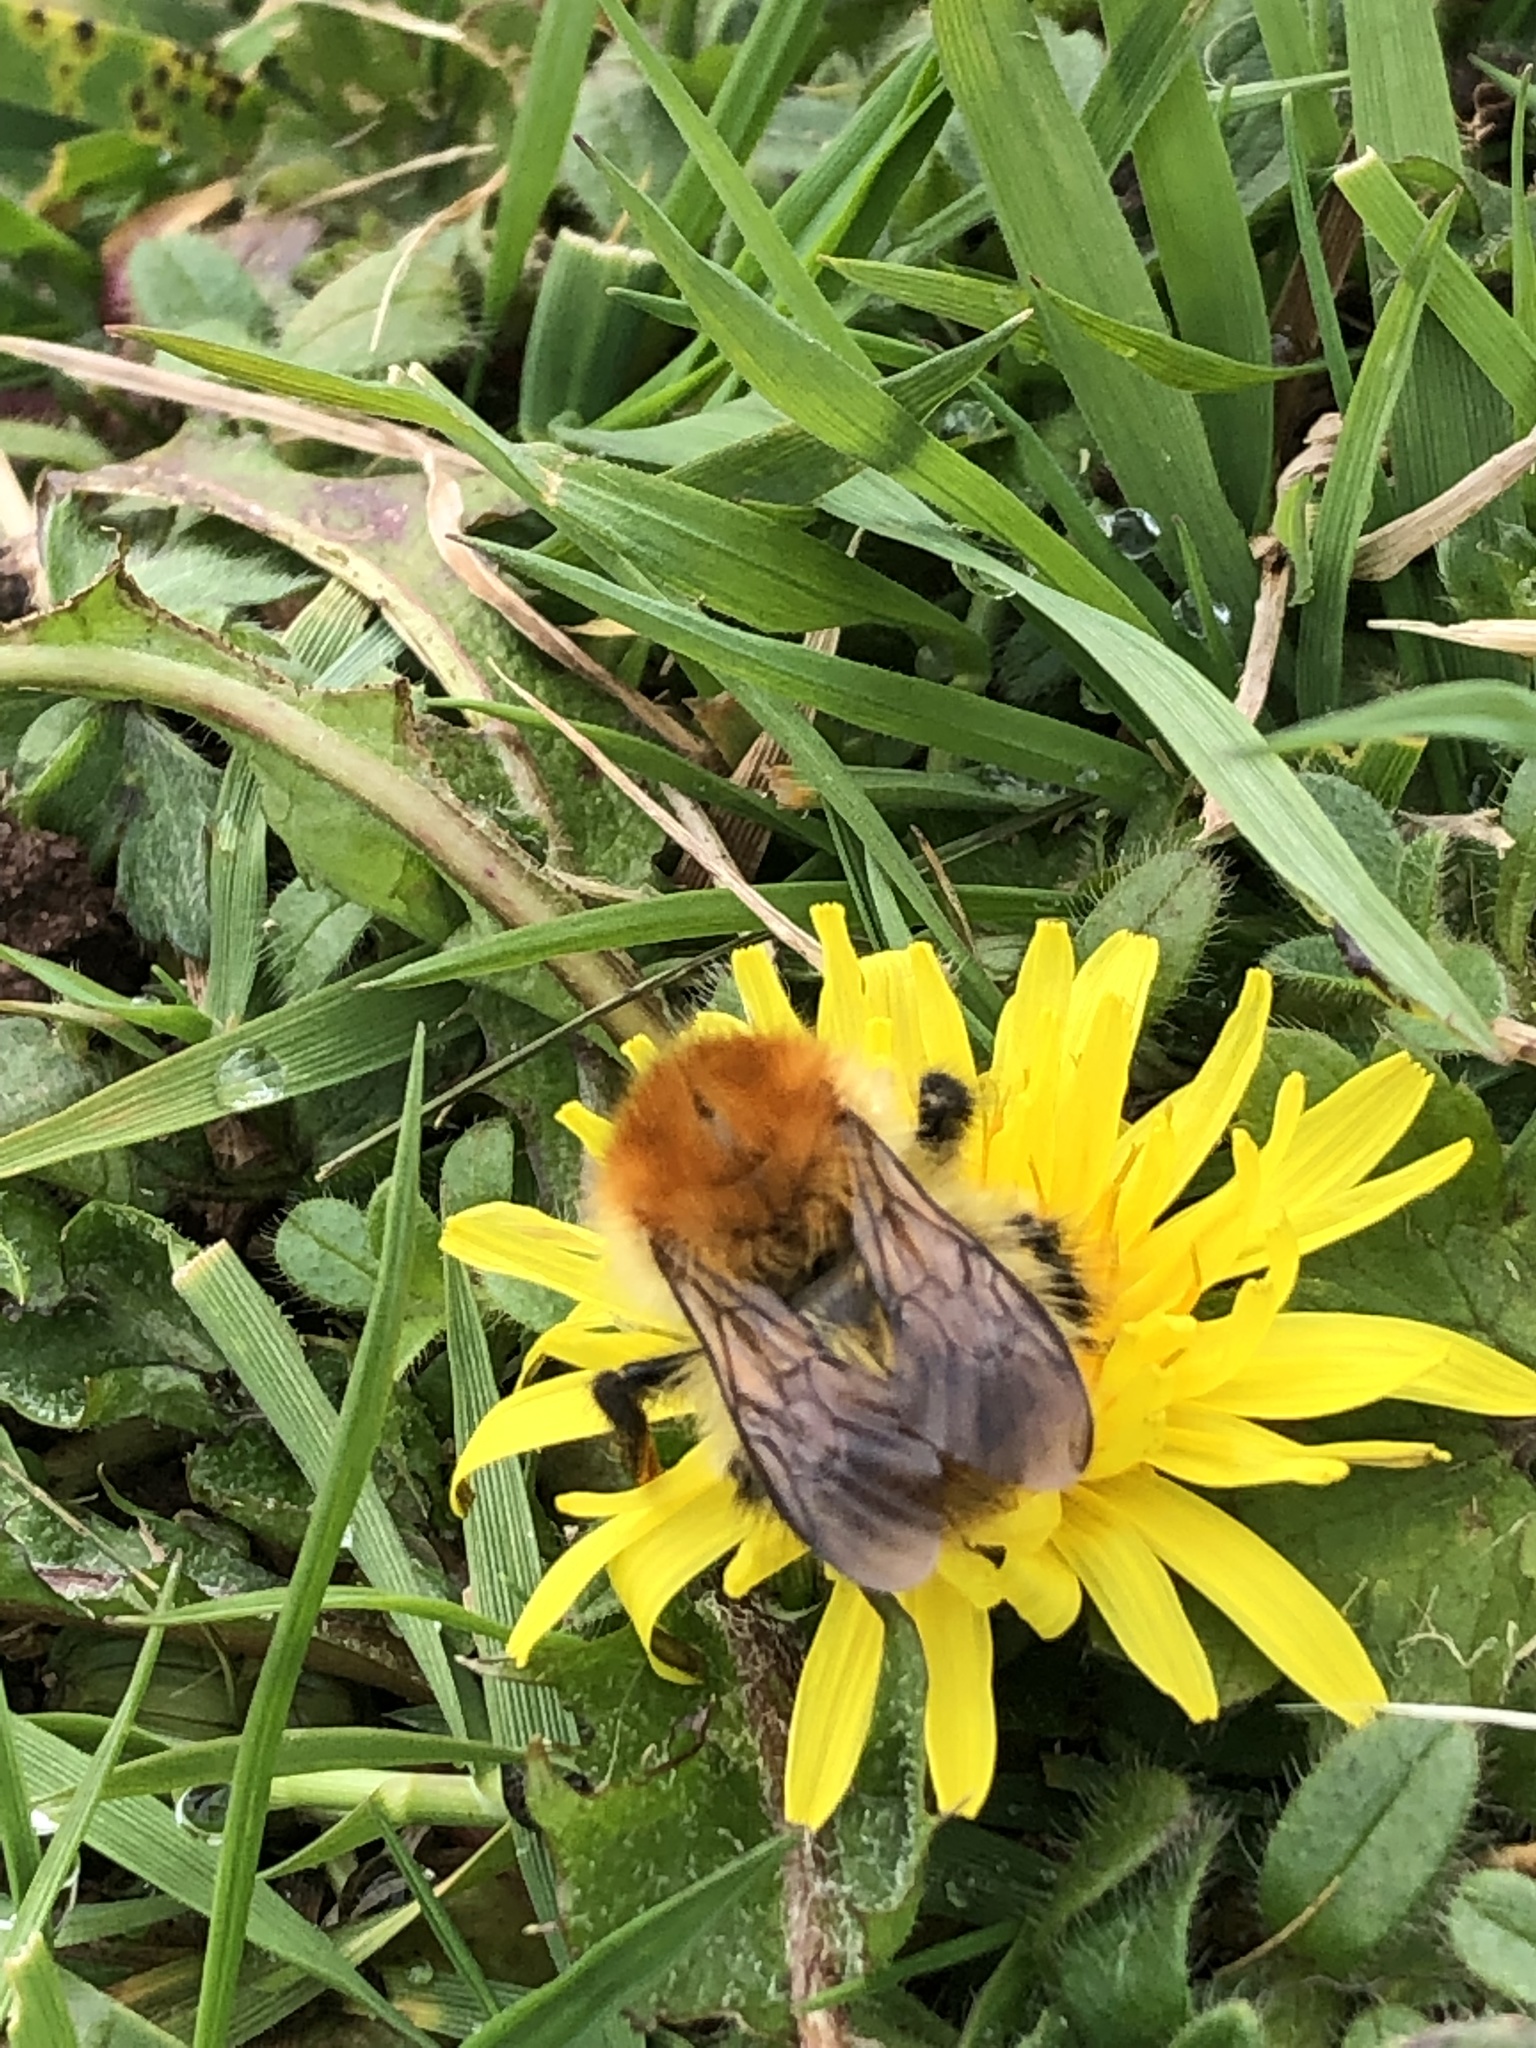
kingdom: Animalia
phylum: Arthropoda
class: Insecta
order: Hymenoptera
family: Apidae
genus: Bombus
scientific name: Bombus pascuorum
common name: Common carder bee
